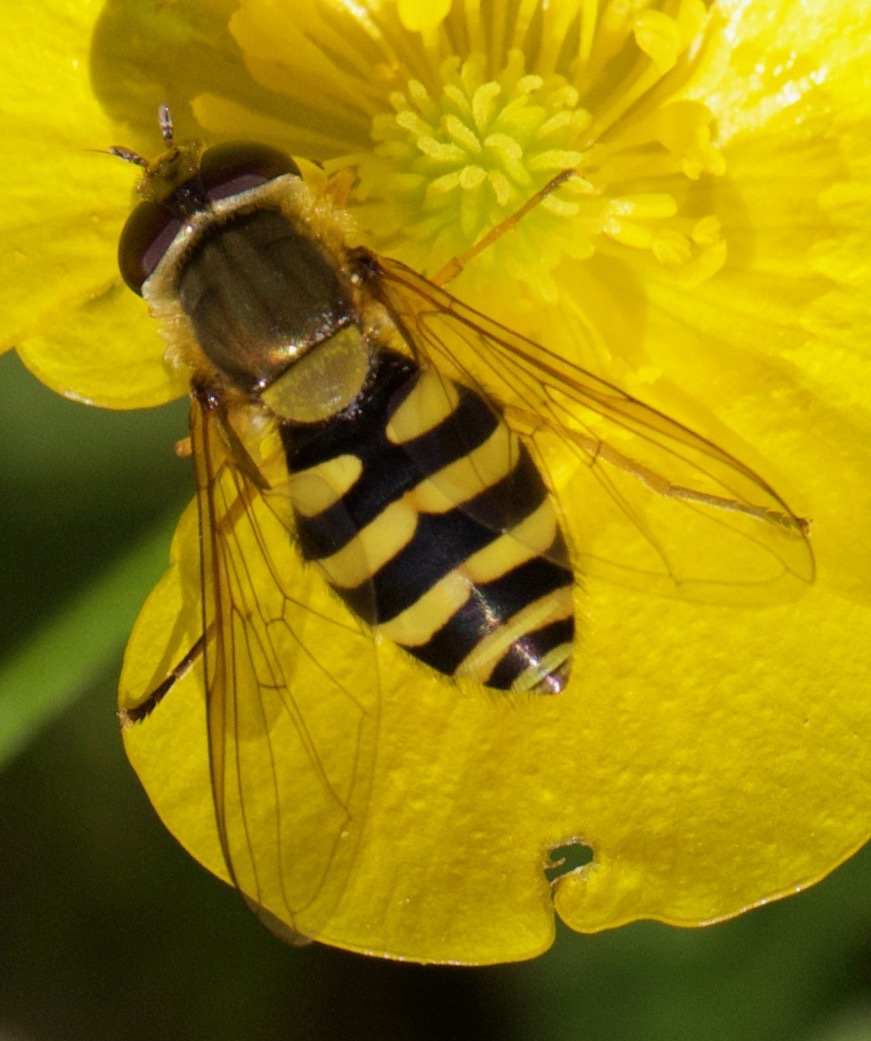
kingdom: Animalia
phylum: Arthropoda
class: Insecta
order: Diptera
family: Syrphidae
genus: Syrphus
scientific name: Syrphus ribesii
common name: Common flower fly
